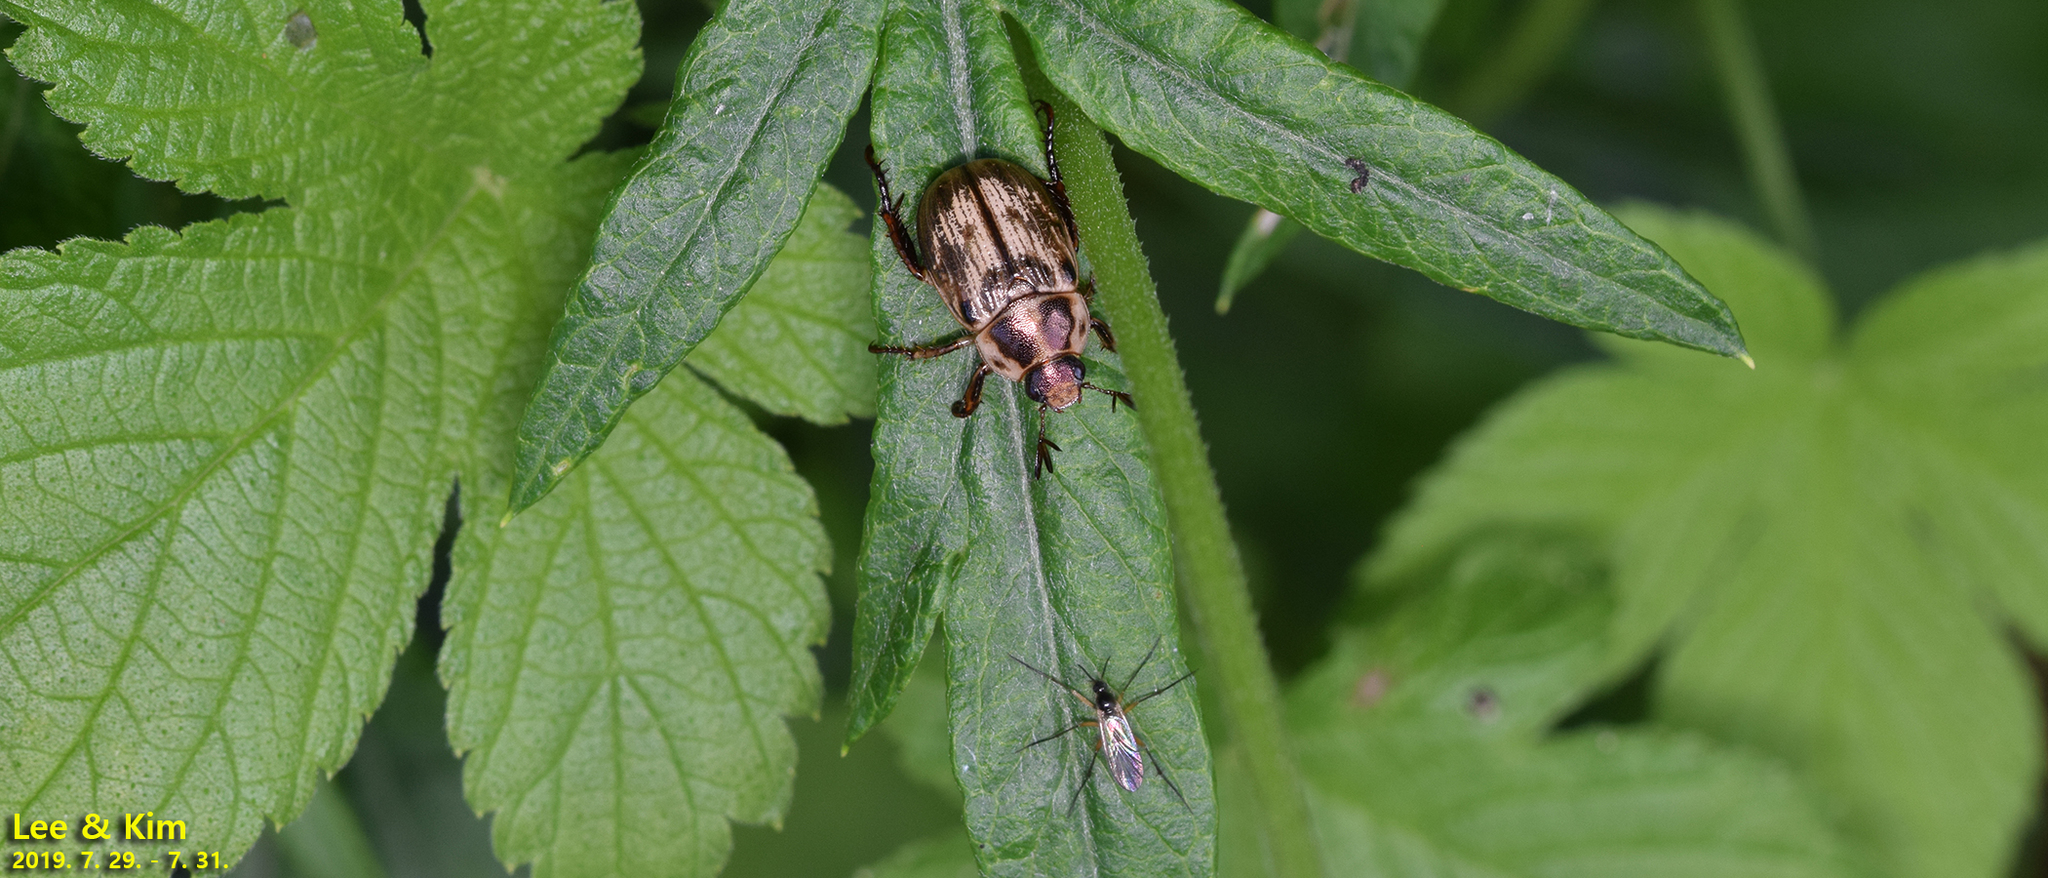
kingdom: Animalia
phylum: Arthropoda
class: Insecta
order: Coleoptera
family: Scarabaeidae
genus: Exomala
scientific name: Exomala orientalis
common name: Oriental beetle
